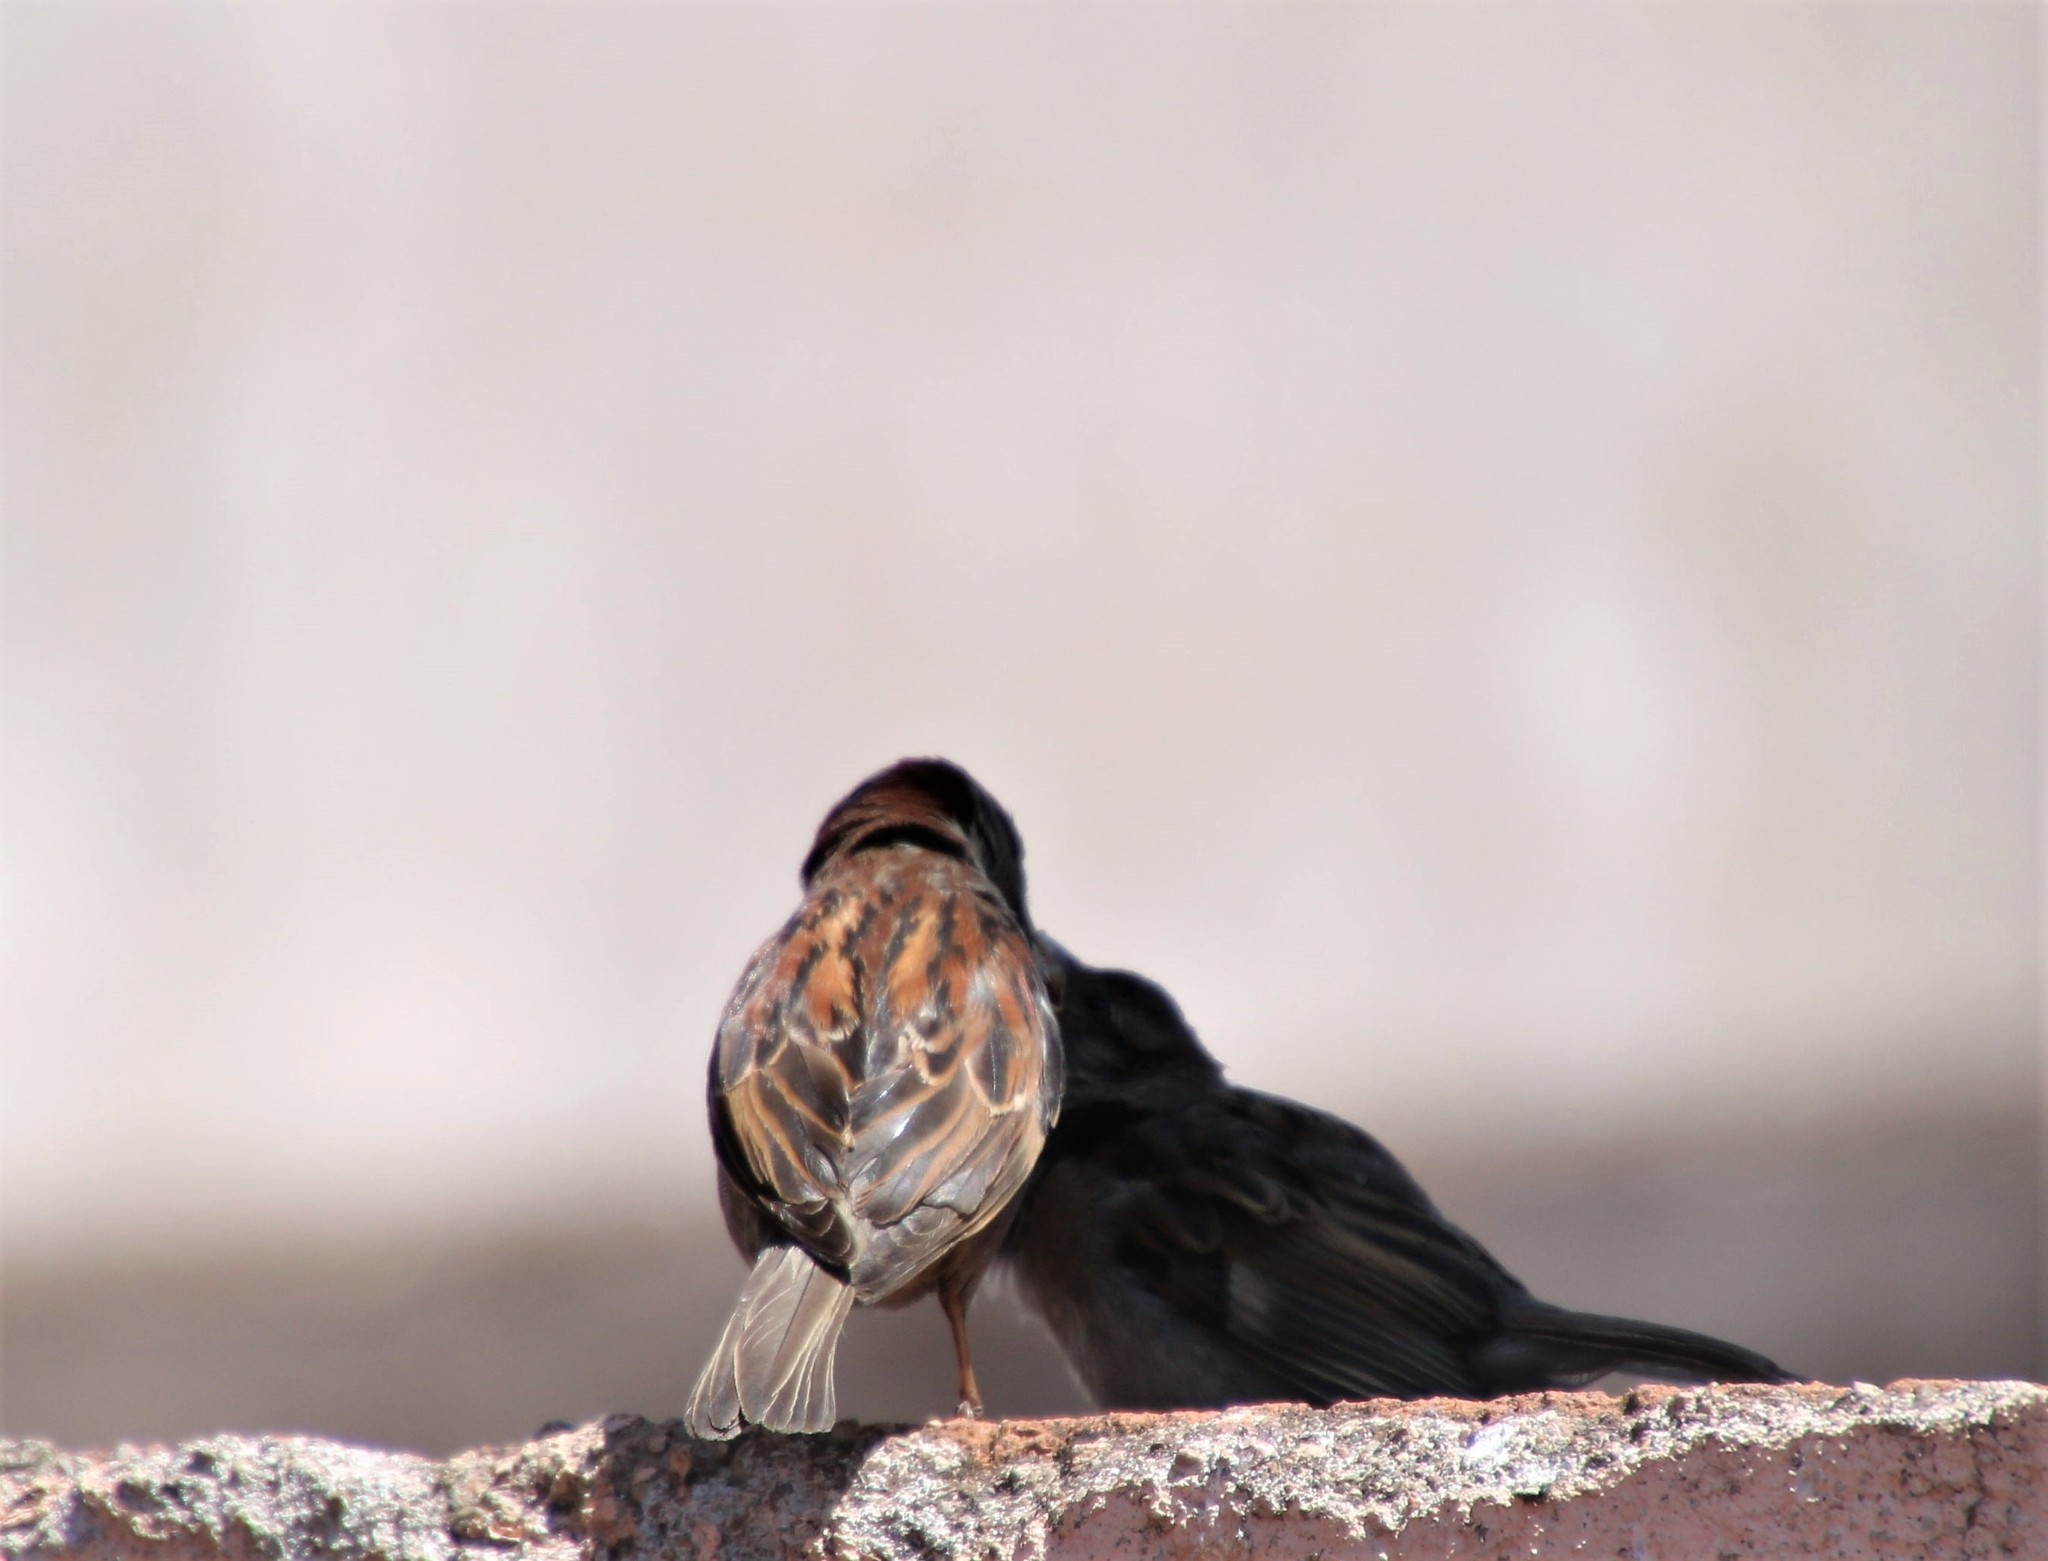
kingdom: Animalia
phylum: Chordata
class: Aves
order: Passeriformes
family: Passeridae
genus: Passer
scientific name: Passer domesticus
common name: House sparrow
